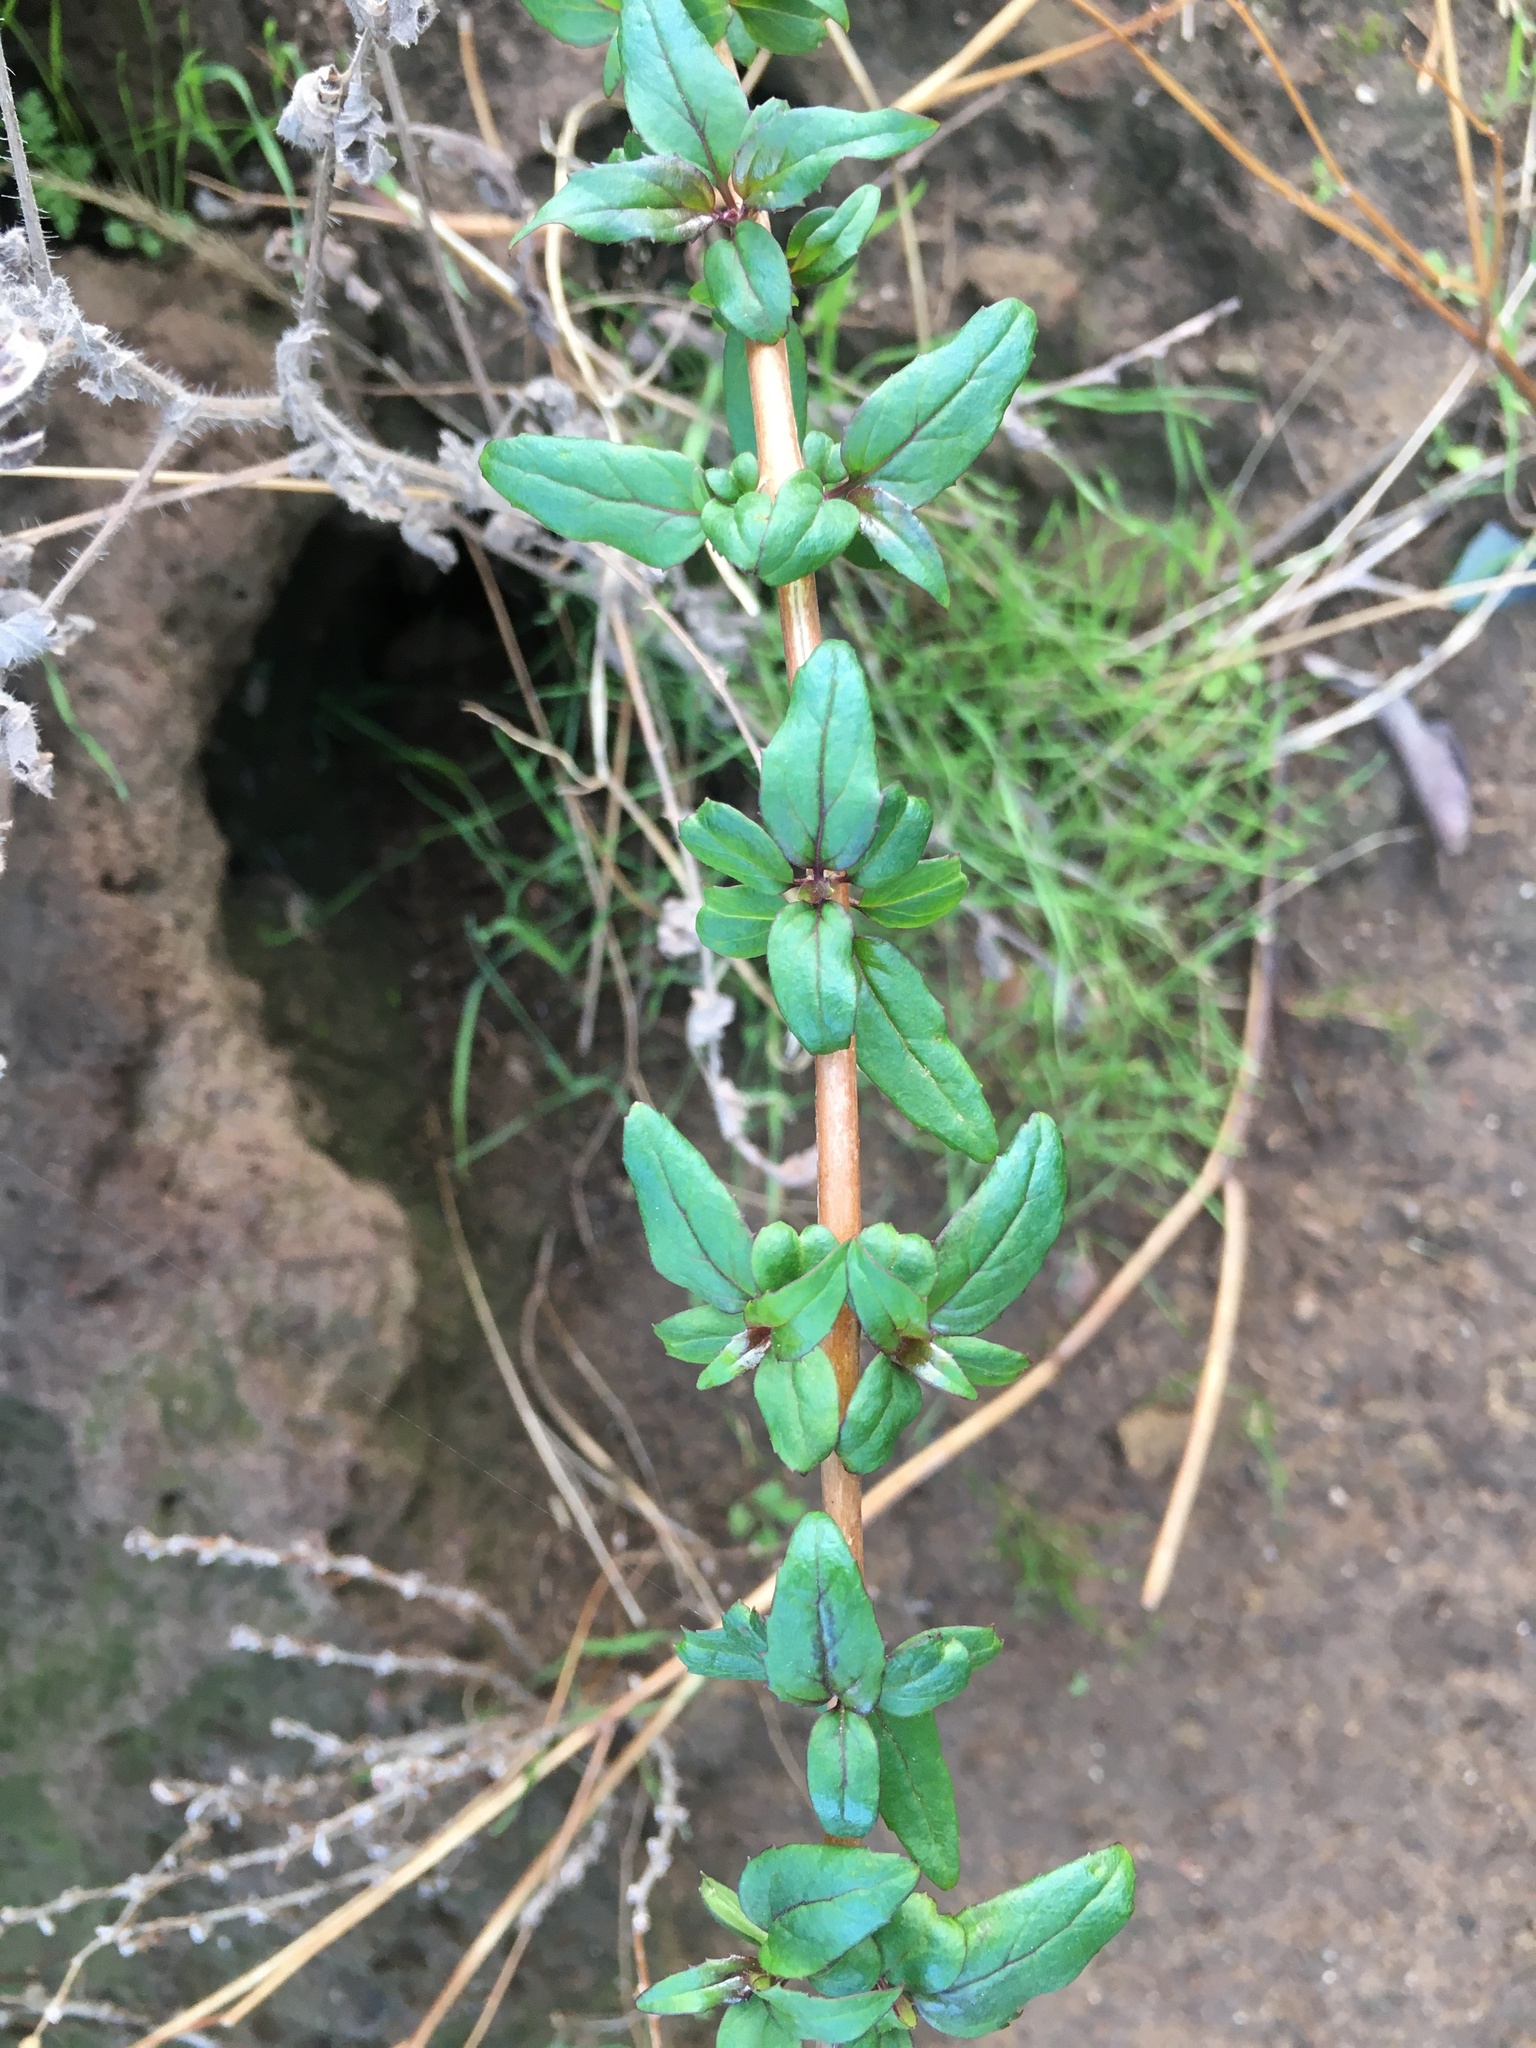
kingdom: Plantae
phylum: Tracheophyta
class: Magnoliopsida
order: Lamiales
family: Plantaginaceae
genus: Keckiella
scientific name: Keckiella cordifolia
